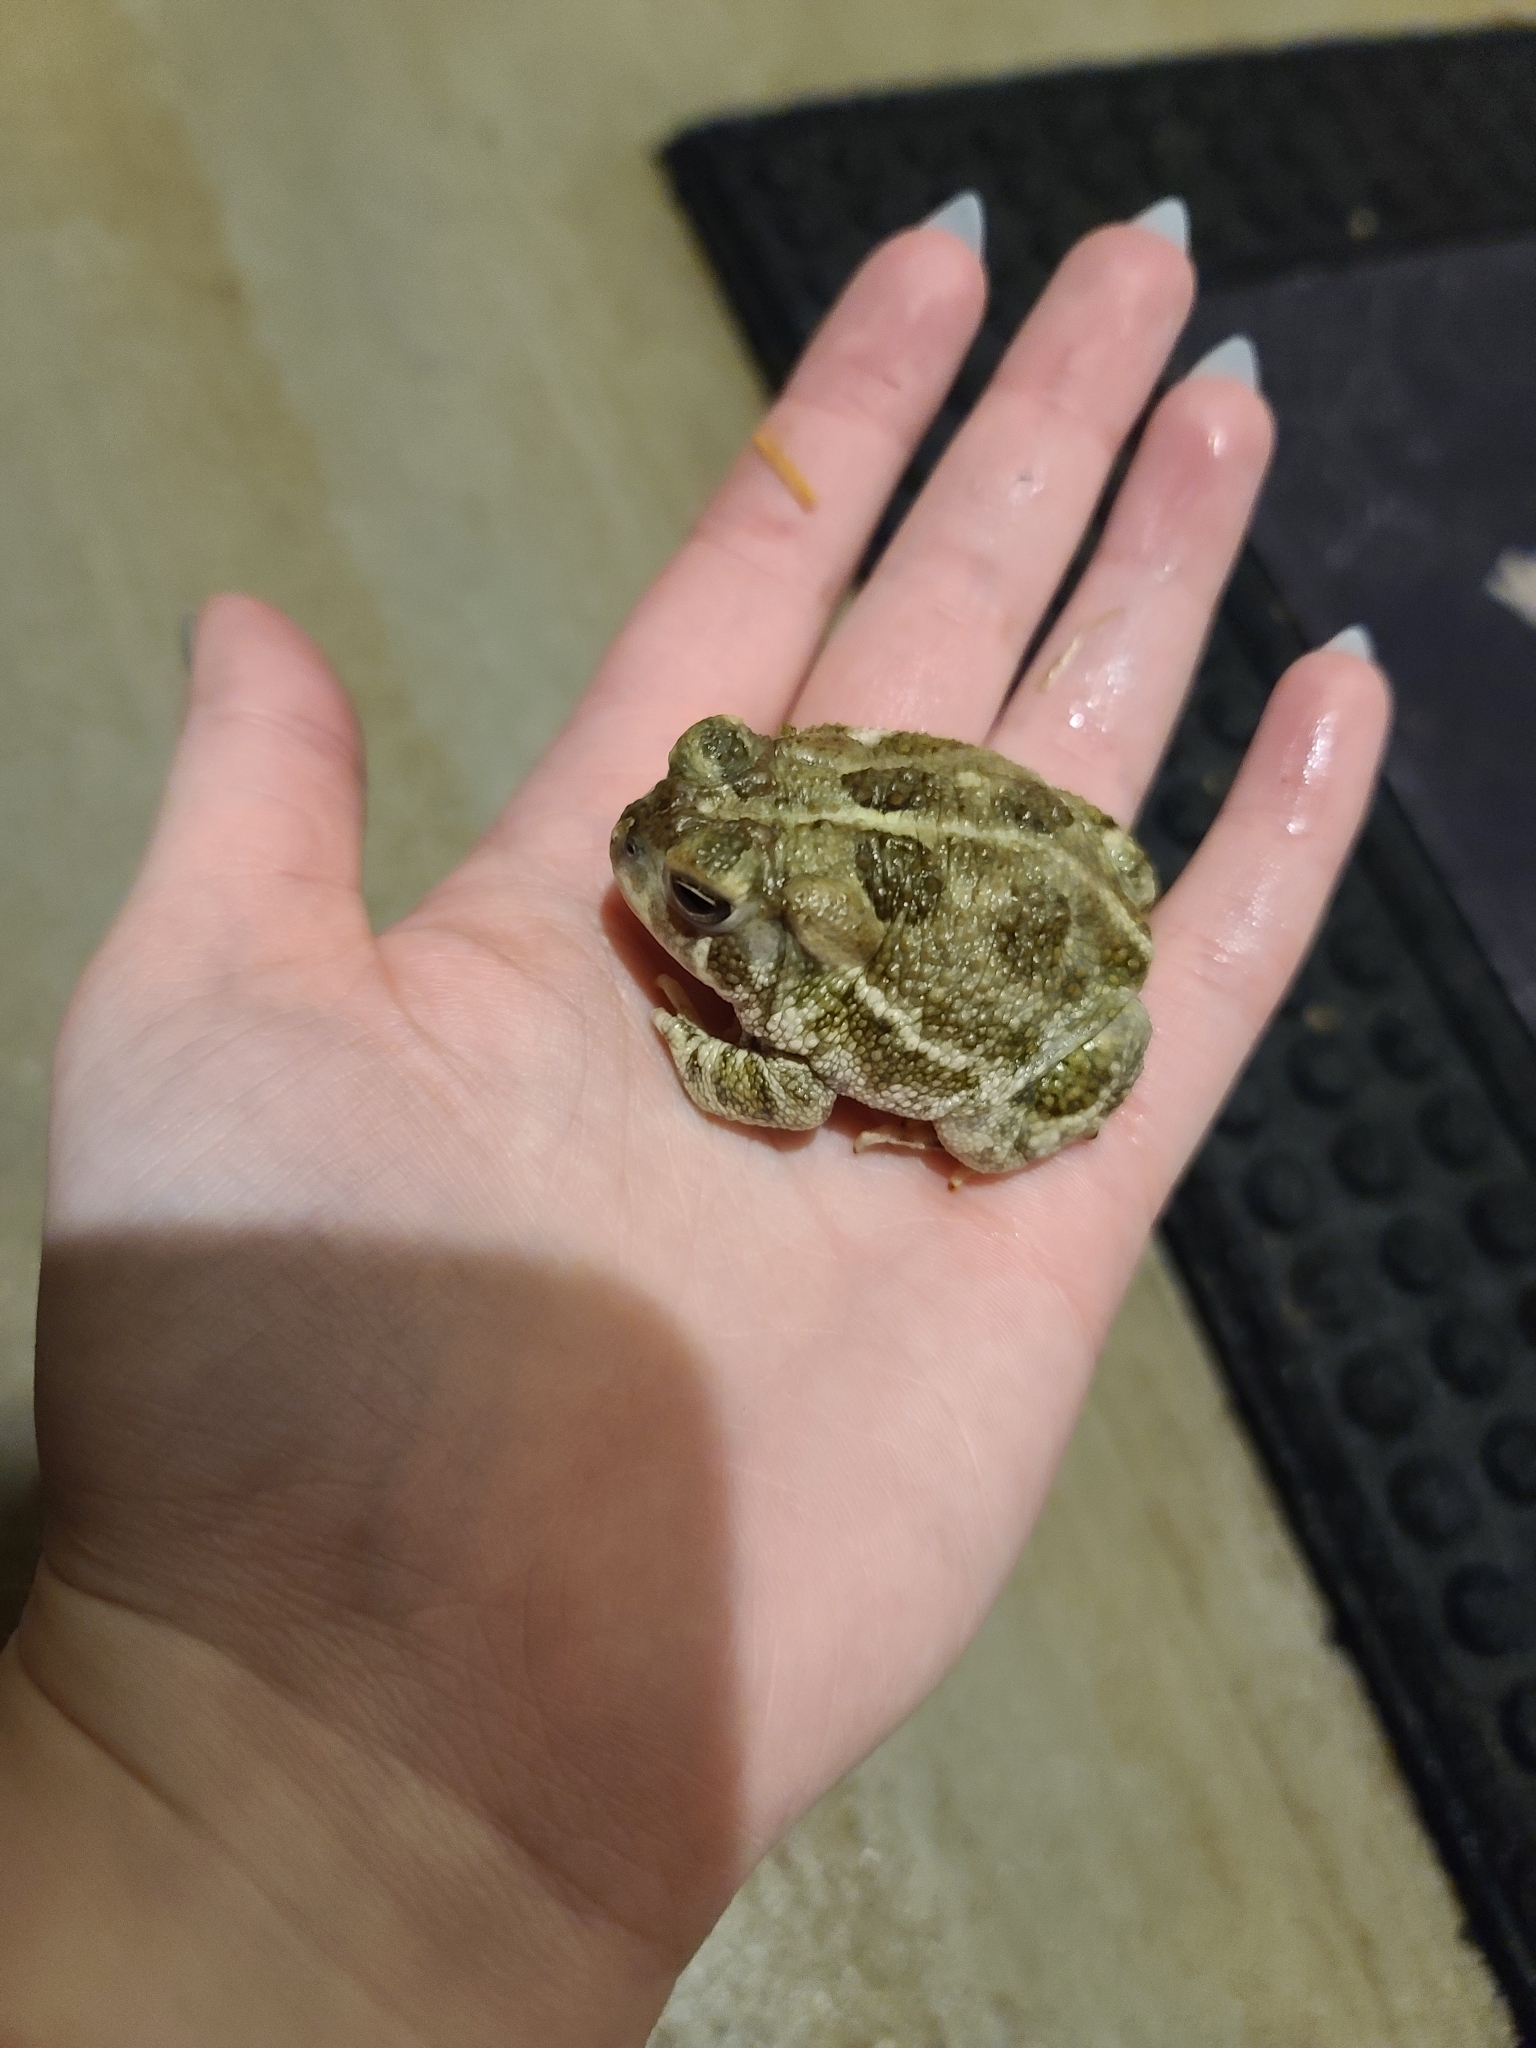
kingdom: Animalia
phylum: Chordata
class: Amphibia
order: Anura
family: Bufonidae
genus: Anaxyrus
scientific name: Anaxyrus cognatus
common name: Great plains toad
